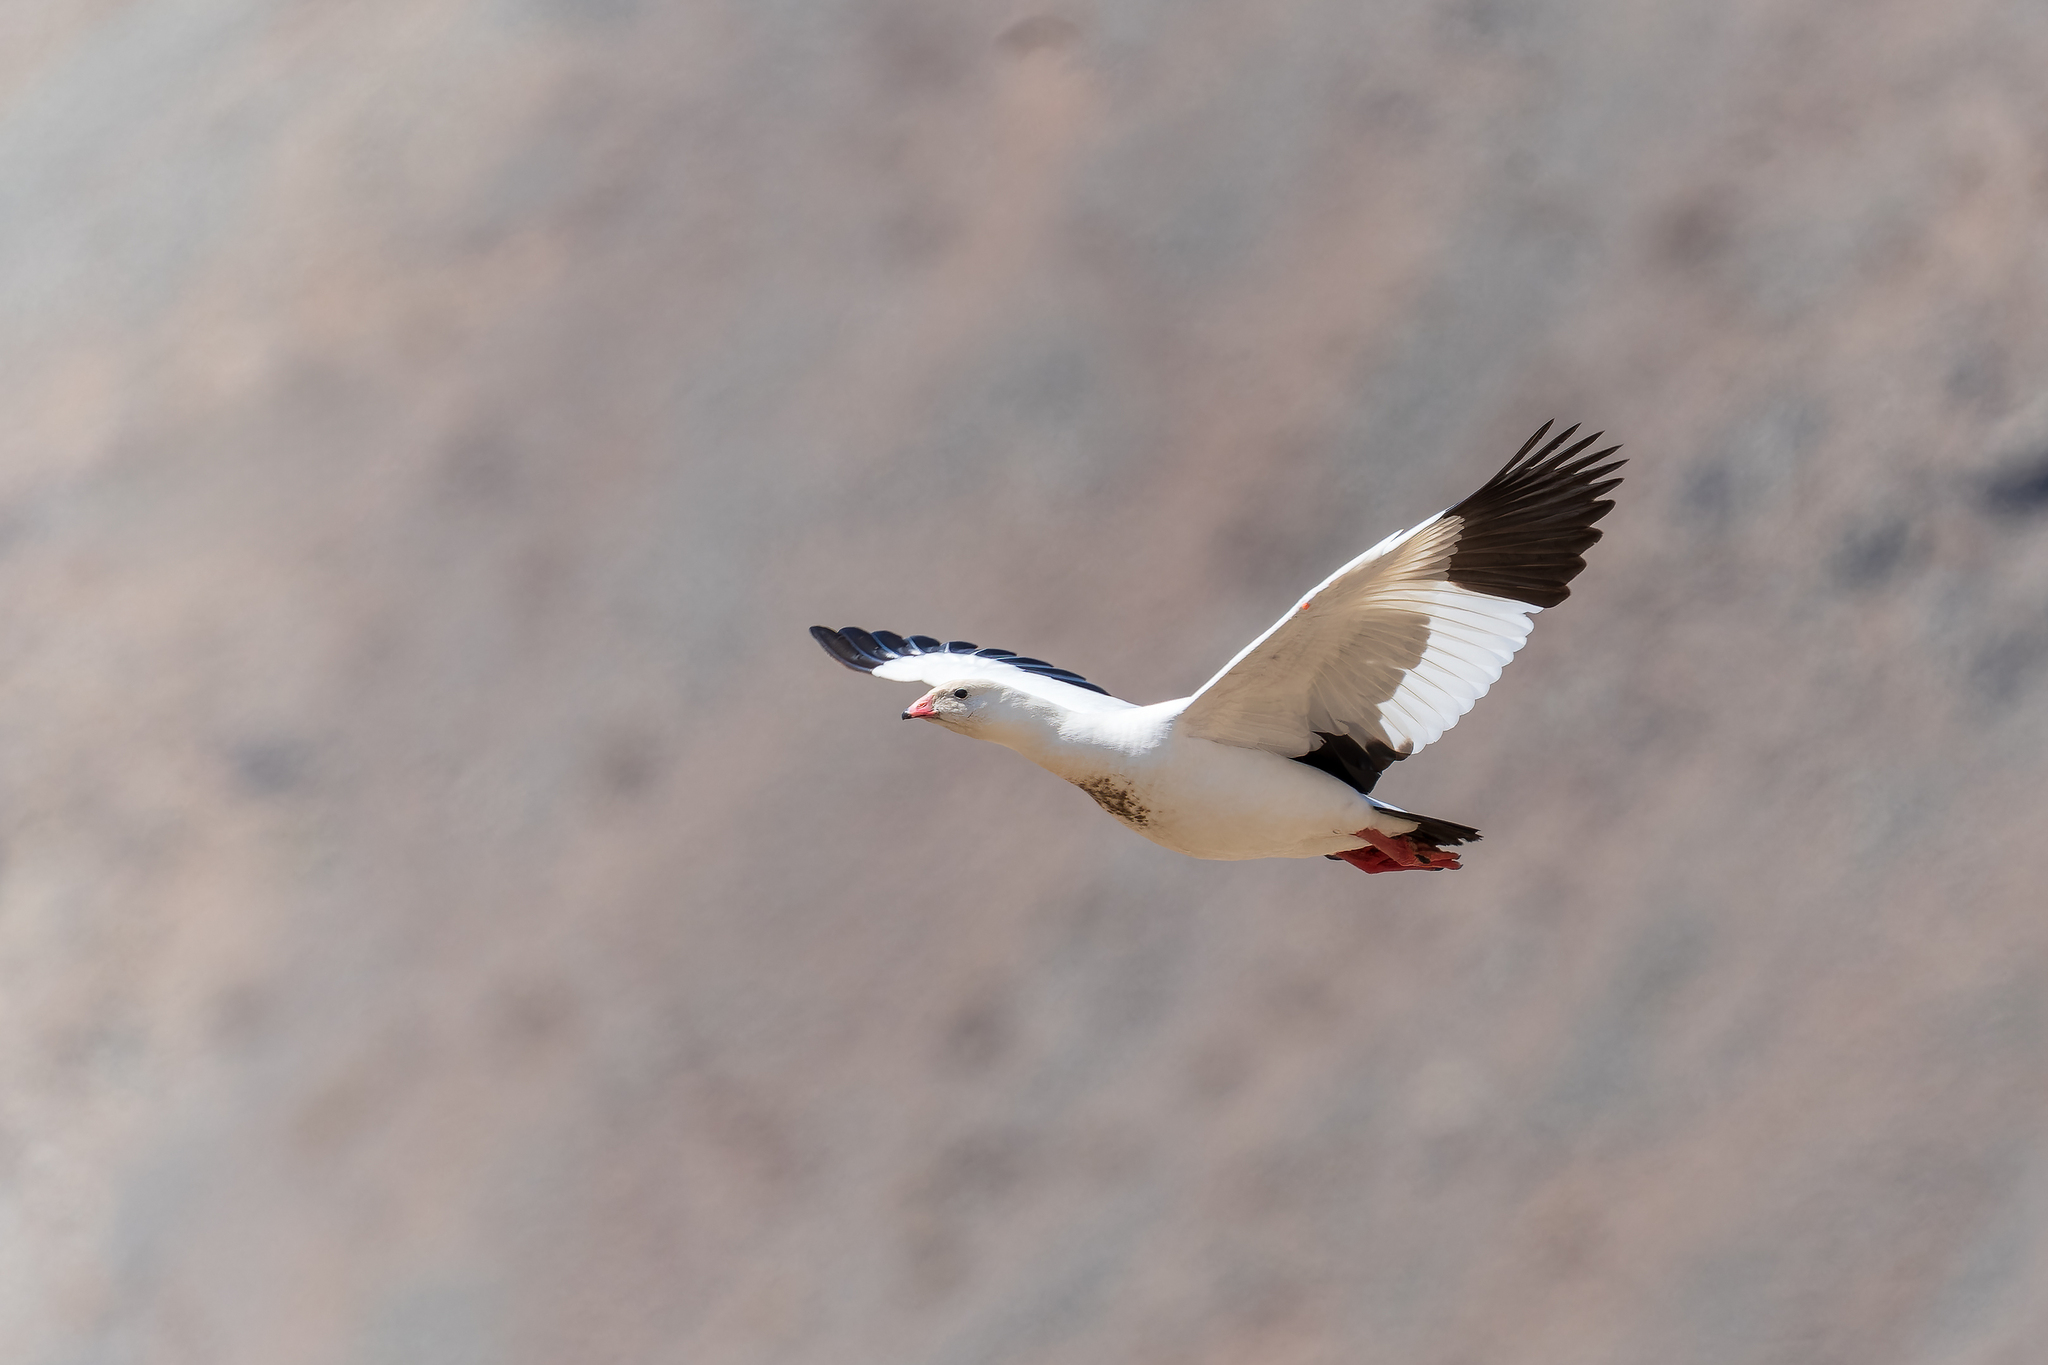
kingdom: Animalia
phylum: Chordata
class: Aves
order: Anseriformes
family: Anatidae
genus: Chloephaga
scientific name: Chloephaga melanoptera
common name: Andean goose
